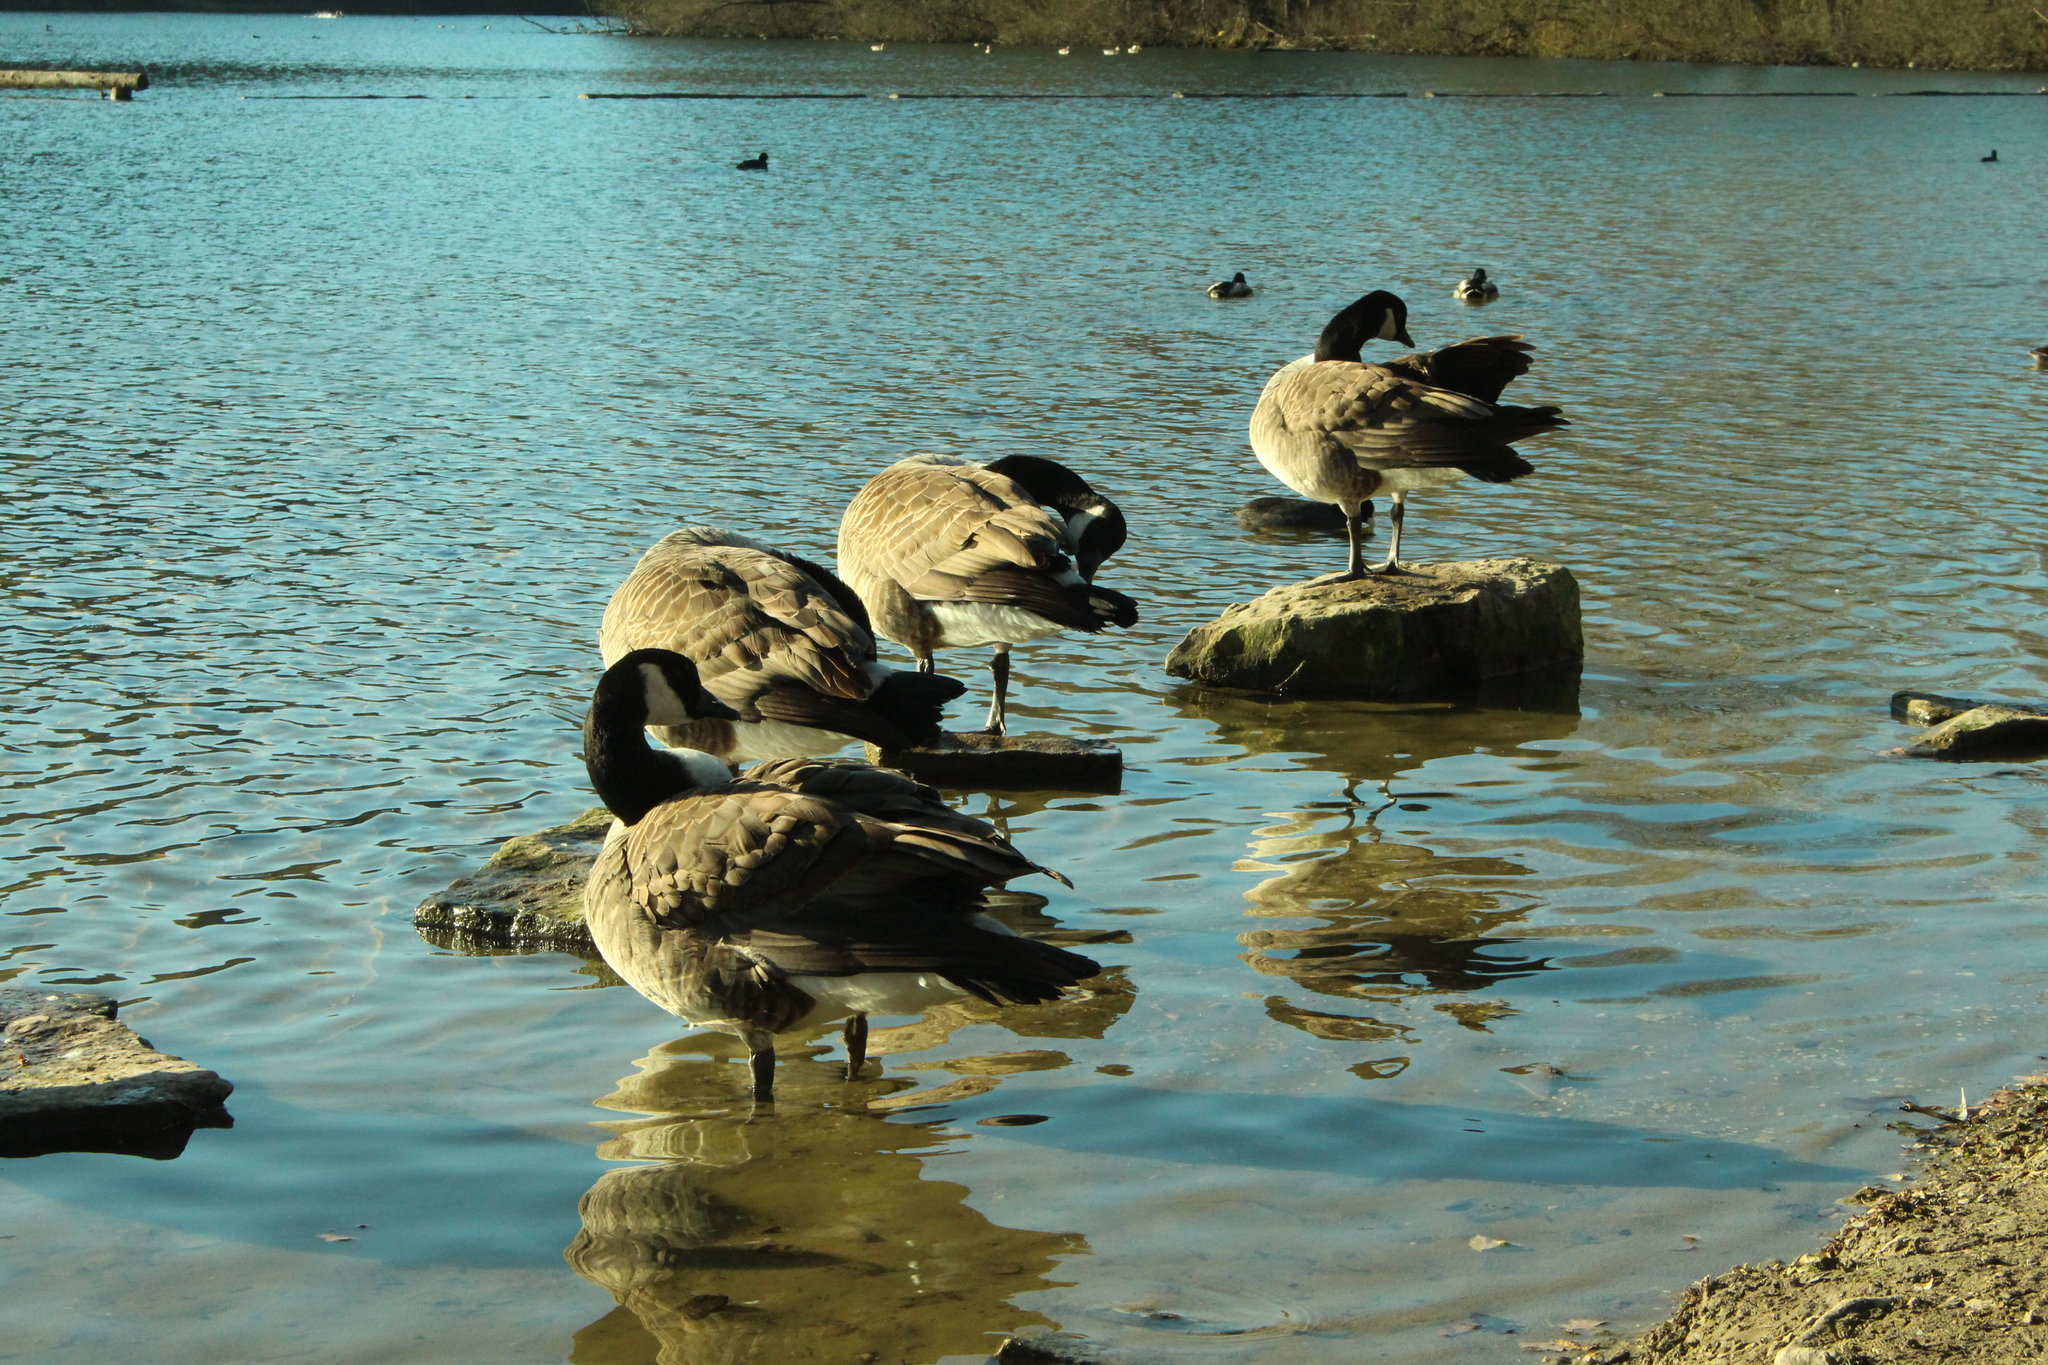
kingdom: Animalia
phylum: Chordata
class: Aves
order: Anseriformes
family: Anatidae
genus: Branta
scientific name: Branta canadensis
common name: Canada goose
